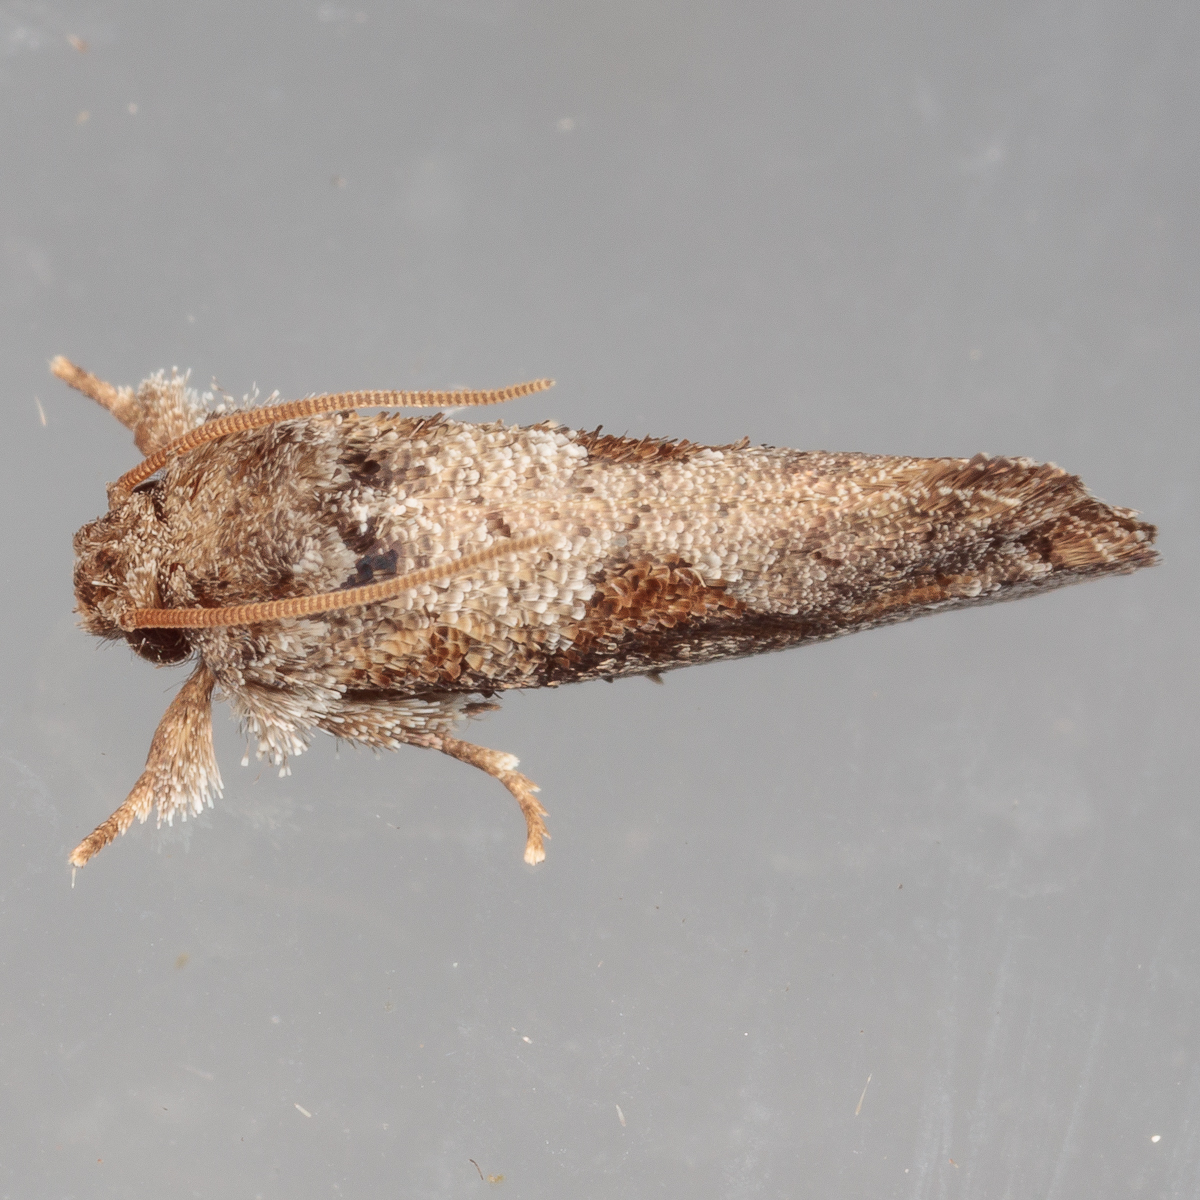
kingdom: Animalia
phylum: Arthropoda
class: Insecta
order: Lepidoptera
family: Tineidae
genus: Acrolophus
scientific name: Acrolophus piger
